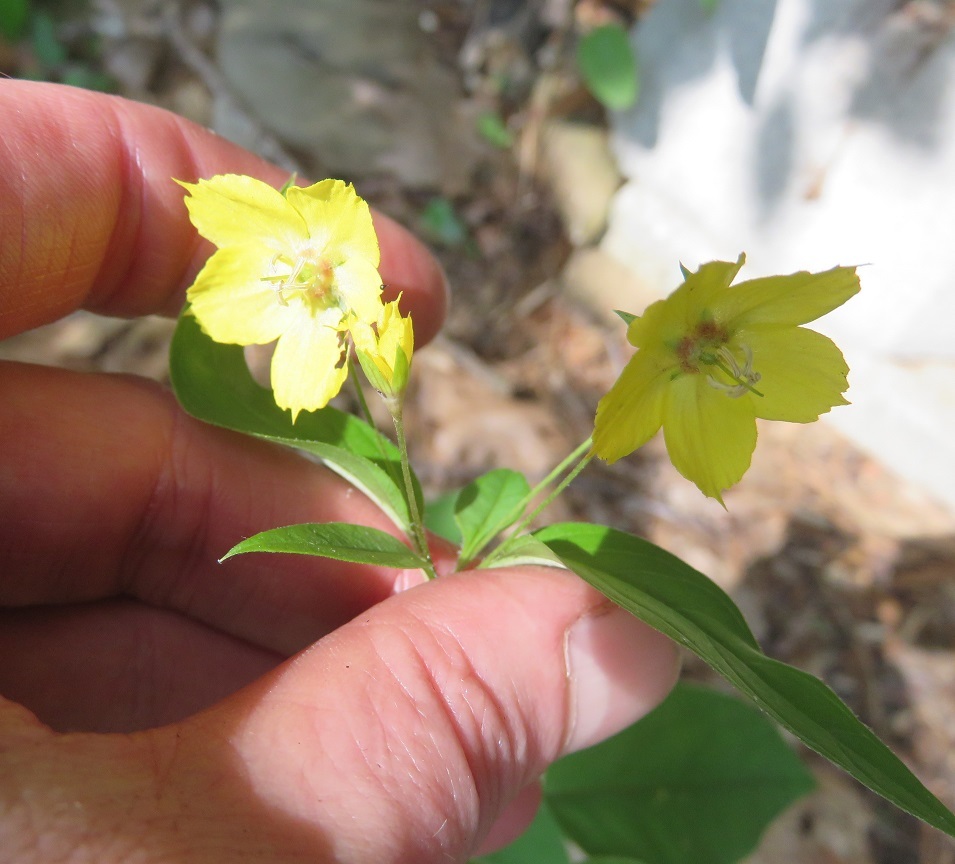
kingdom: Plantae
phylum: Tracheophyta
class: Magnoliopsida
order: Ericales
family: Primulaceae
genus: Lysimachia
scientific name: Lysimachia ciliata
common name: Fringed loosestrife
